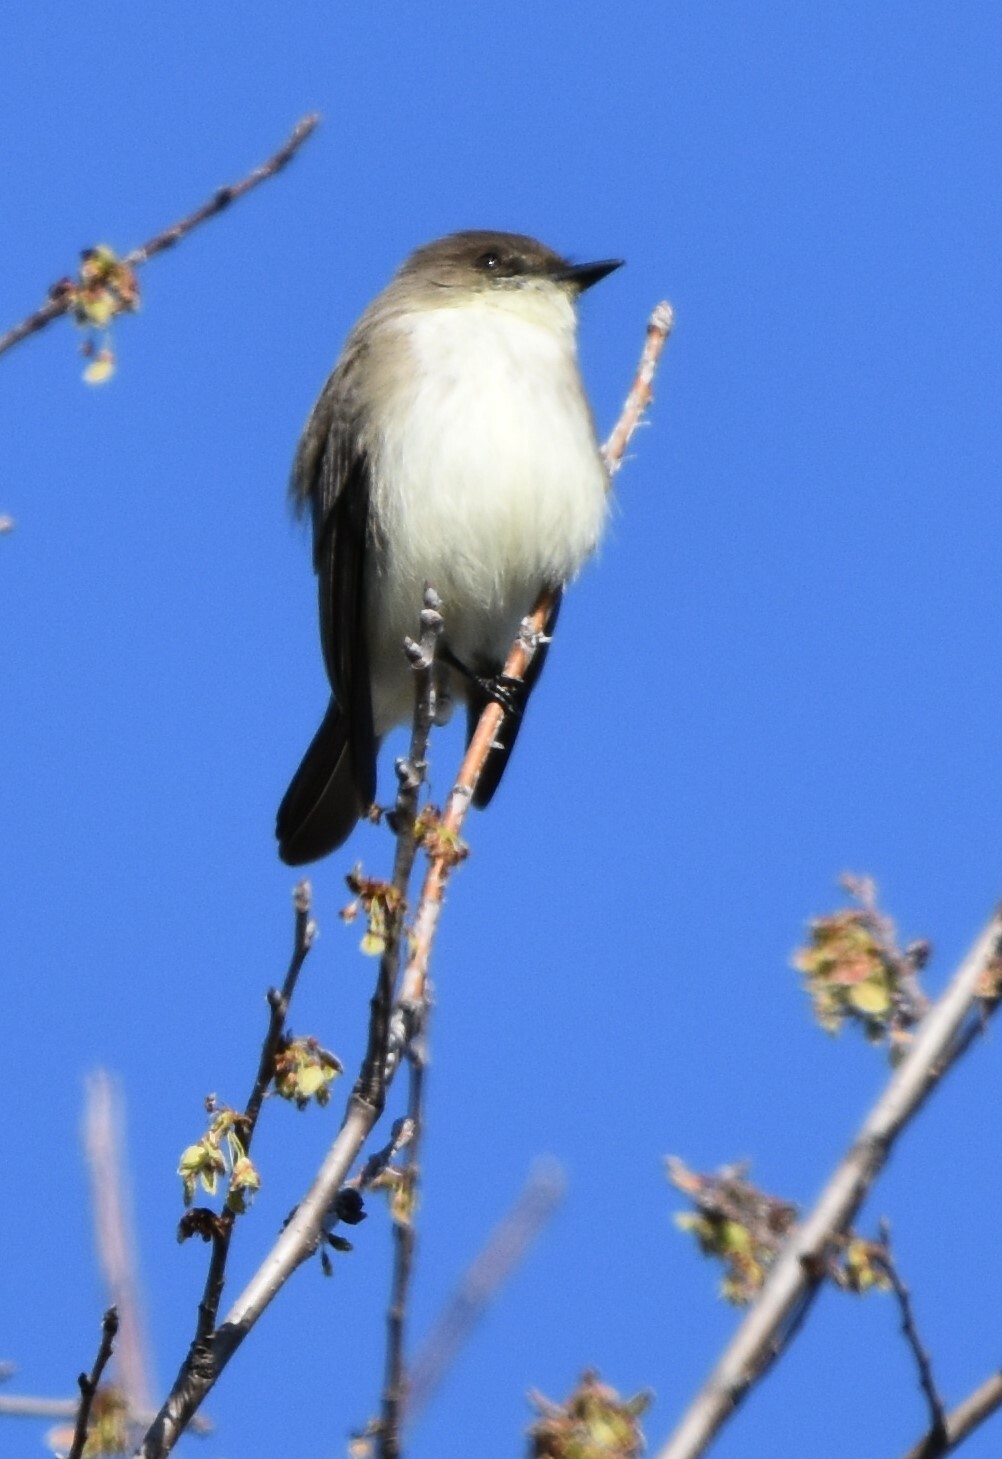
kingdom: Animalia
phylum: Chordata
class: Aves
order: Passeriformes
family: Tyrannidae
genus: Sayornis
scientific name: Sayornis phoebe
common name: Eastern phoebe
